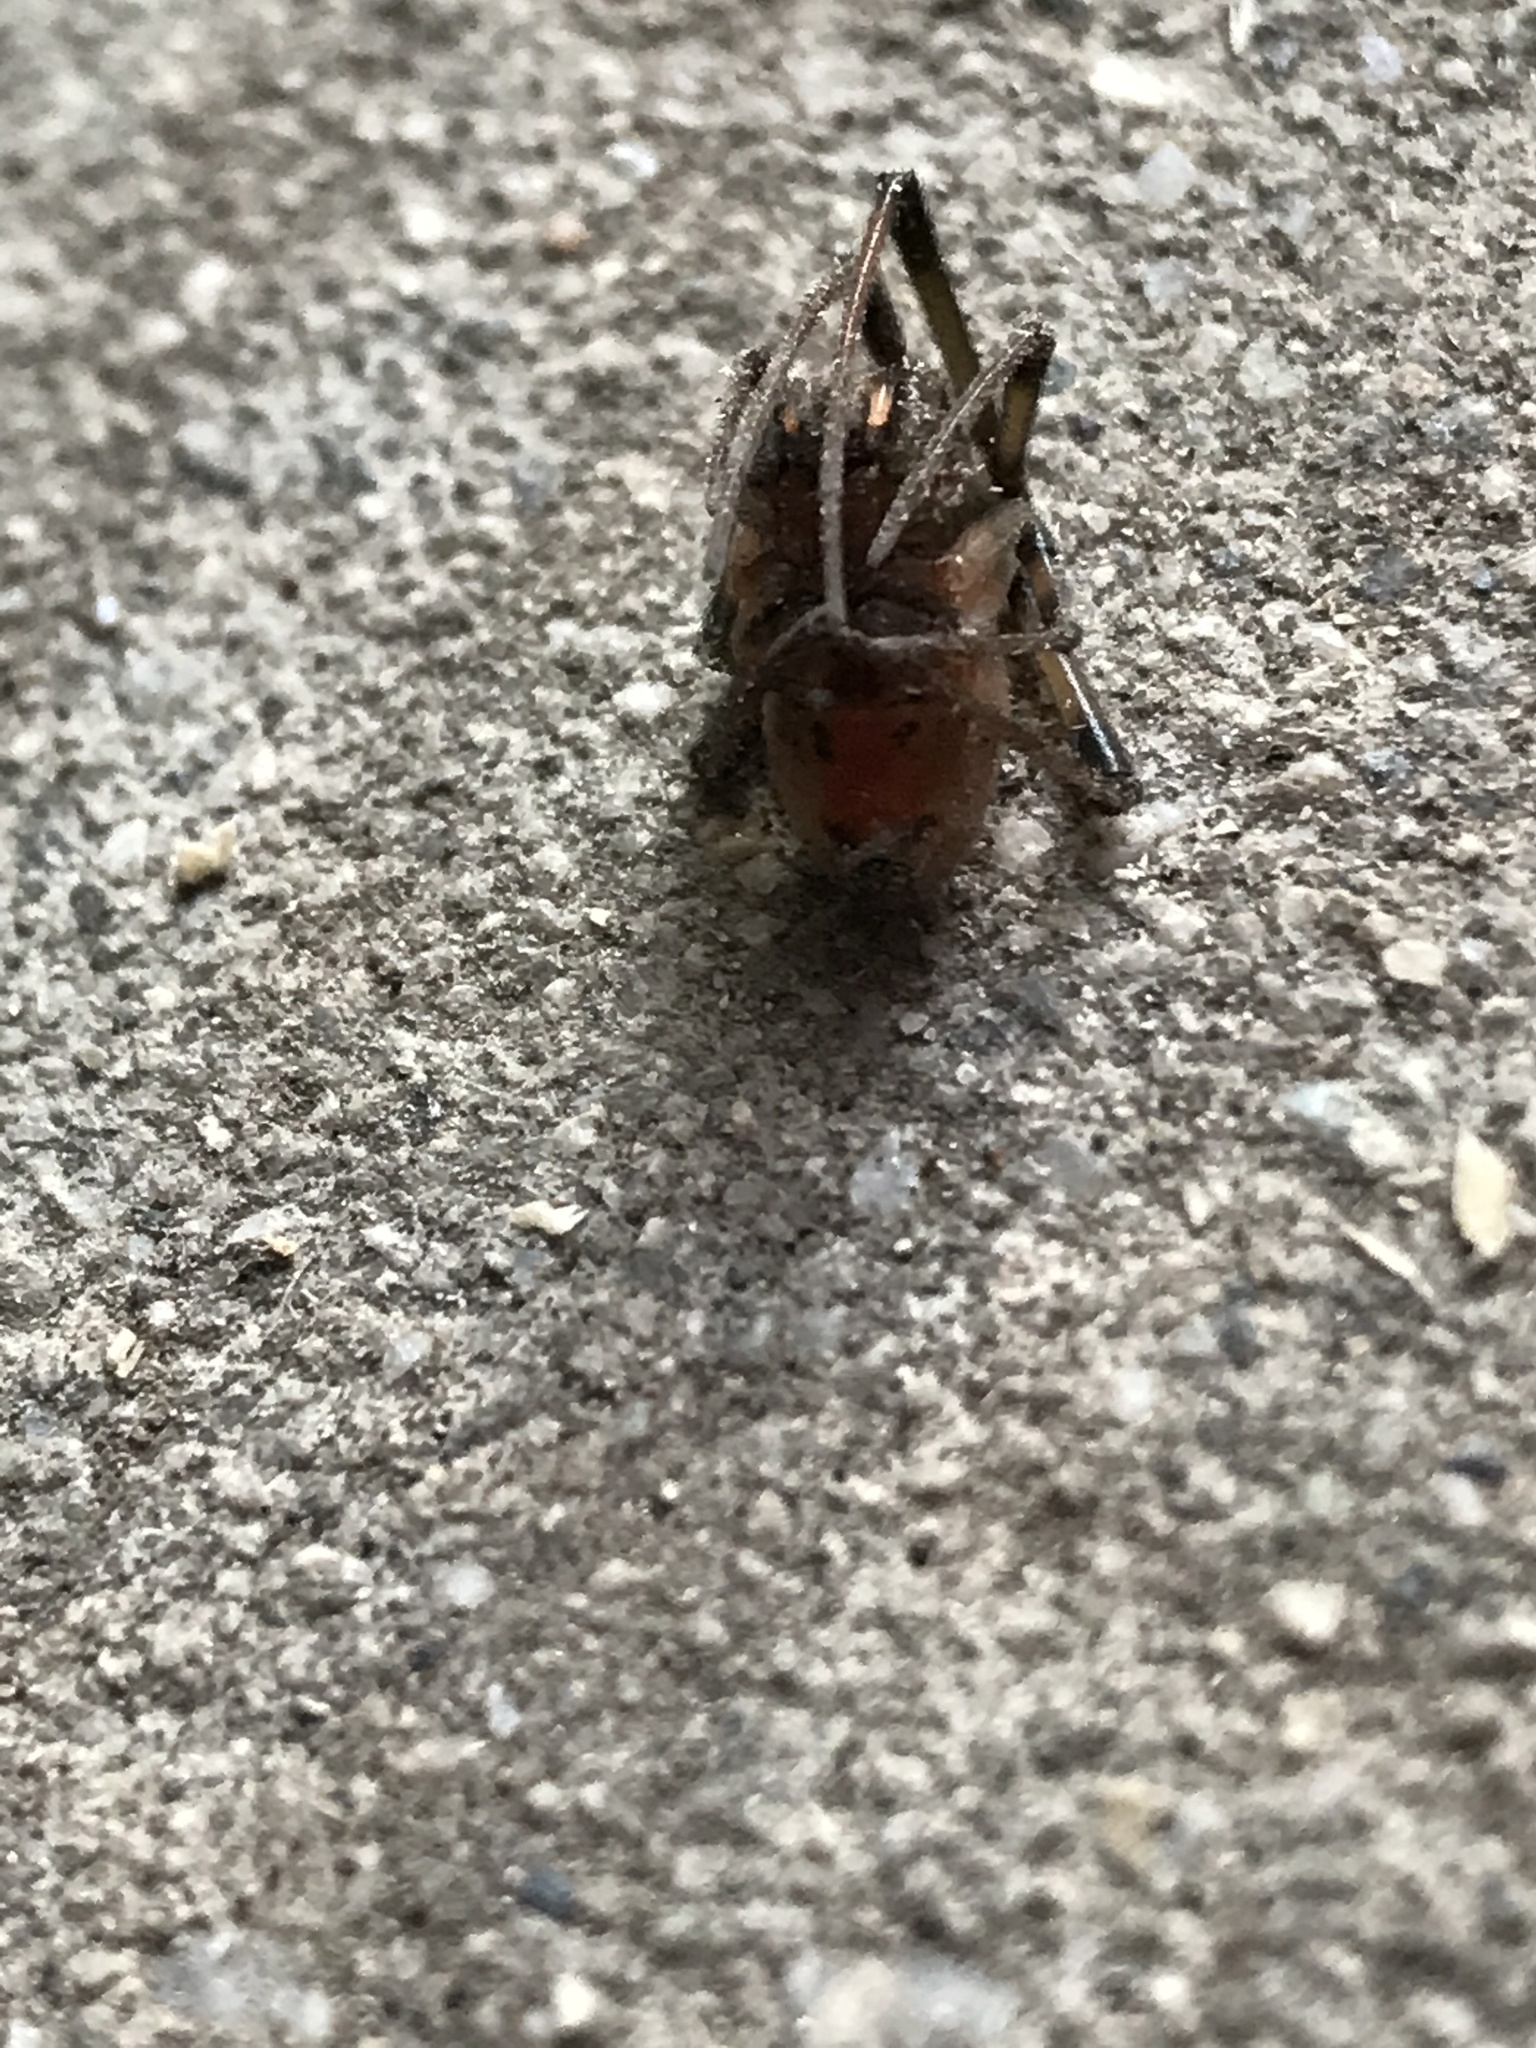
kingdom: Animalia
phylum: Arthropoda
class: Arachnida
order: Araneae
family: Theridiidae
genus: Latrodectus
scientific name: Latrodectus geometricus
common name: Brown widow spider
